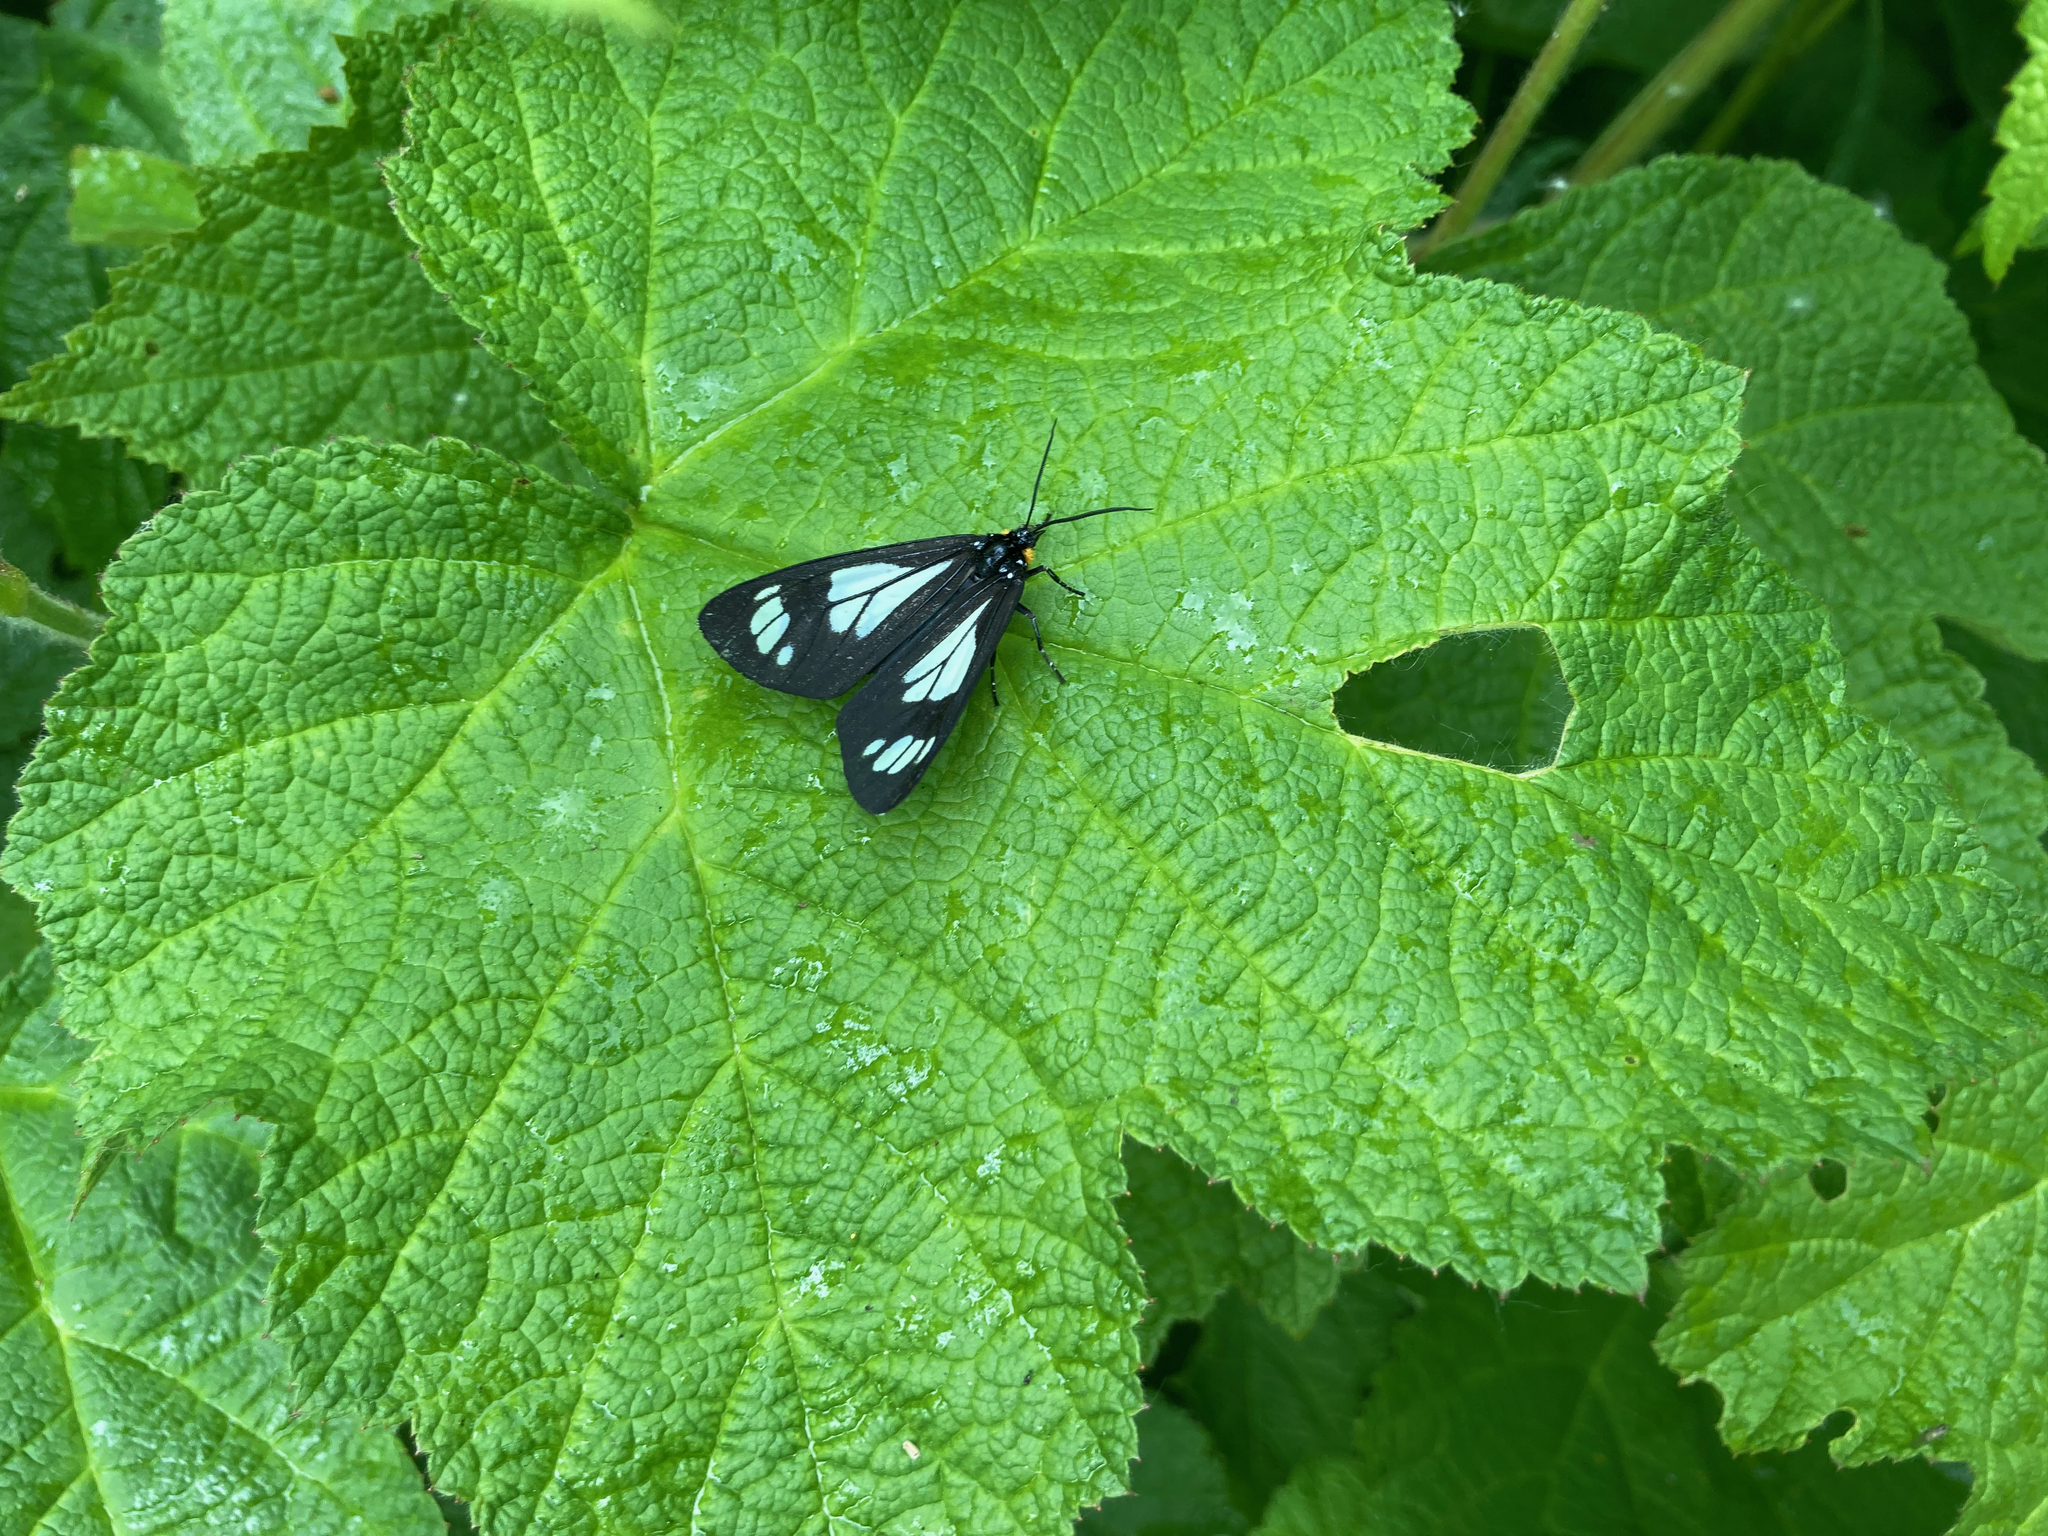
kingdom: Animalia
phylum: Arthropoda
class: Insecta
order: Lepidoptera
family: Erebidae
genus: Gnophaela
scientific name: Gnophaela vermiculata
